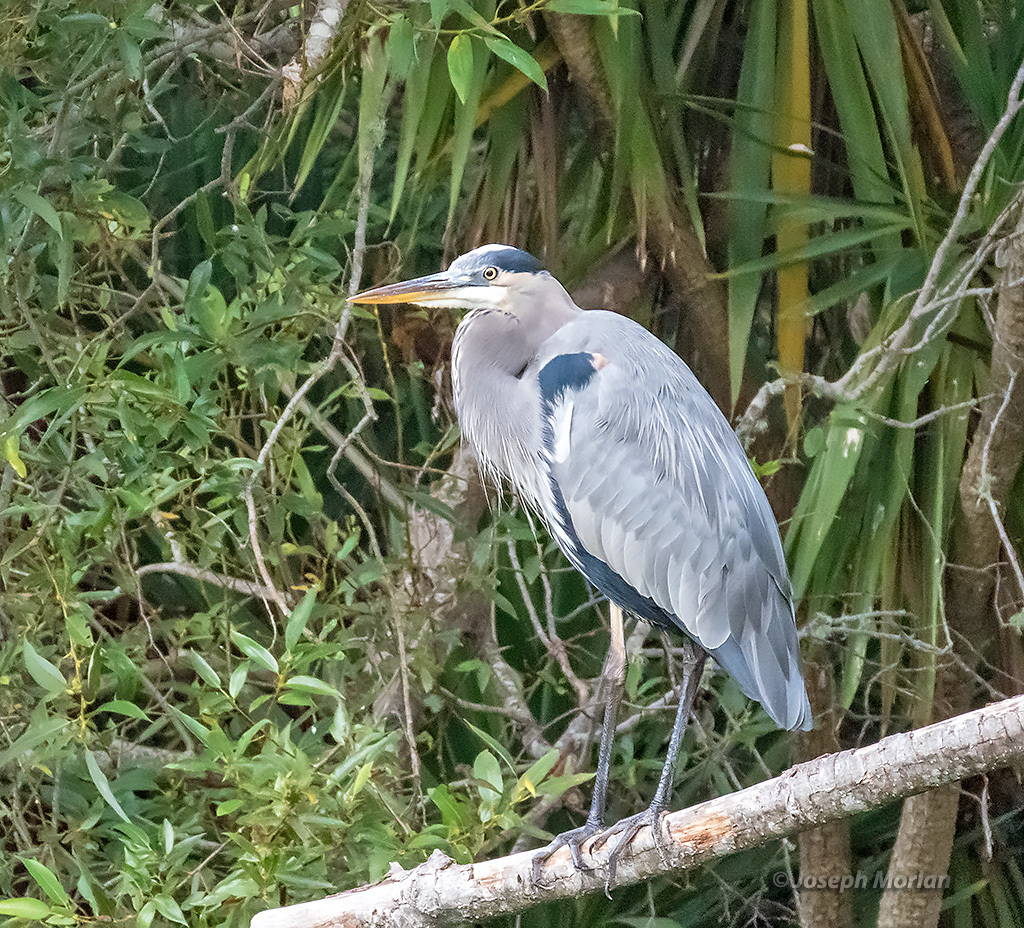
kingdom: Animalia
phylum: Chordata
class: Aves
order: Pelecaniformes
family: Ardeidae
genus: Ardea
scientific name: Ardea herodias
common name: Great blue heron
